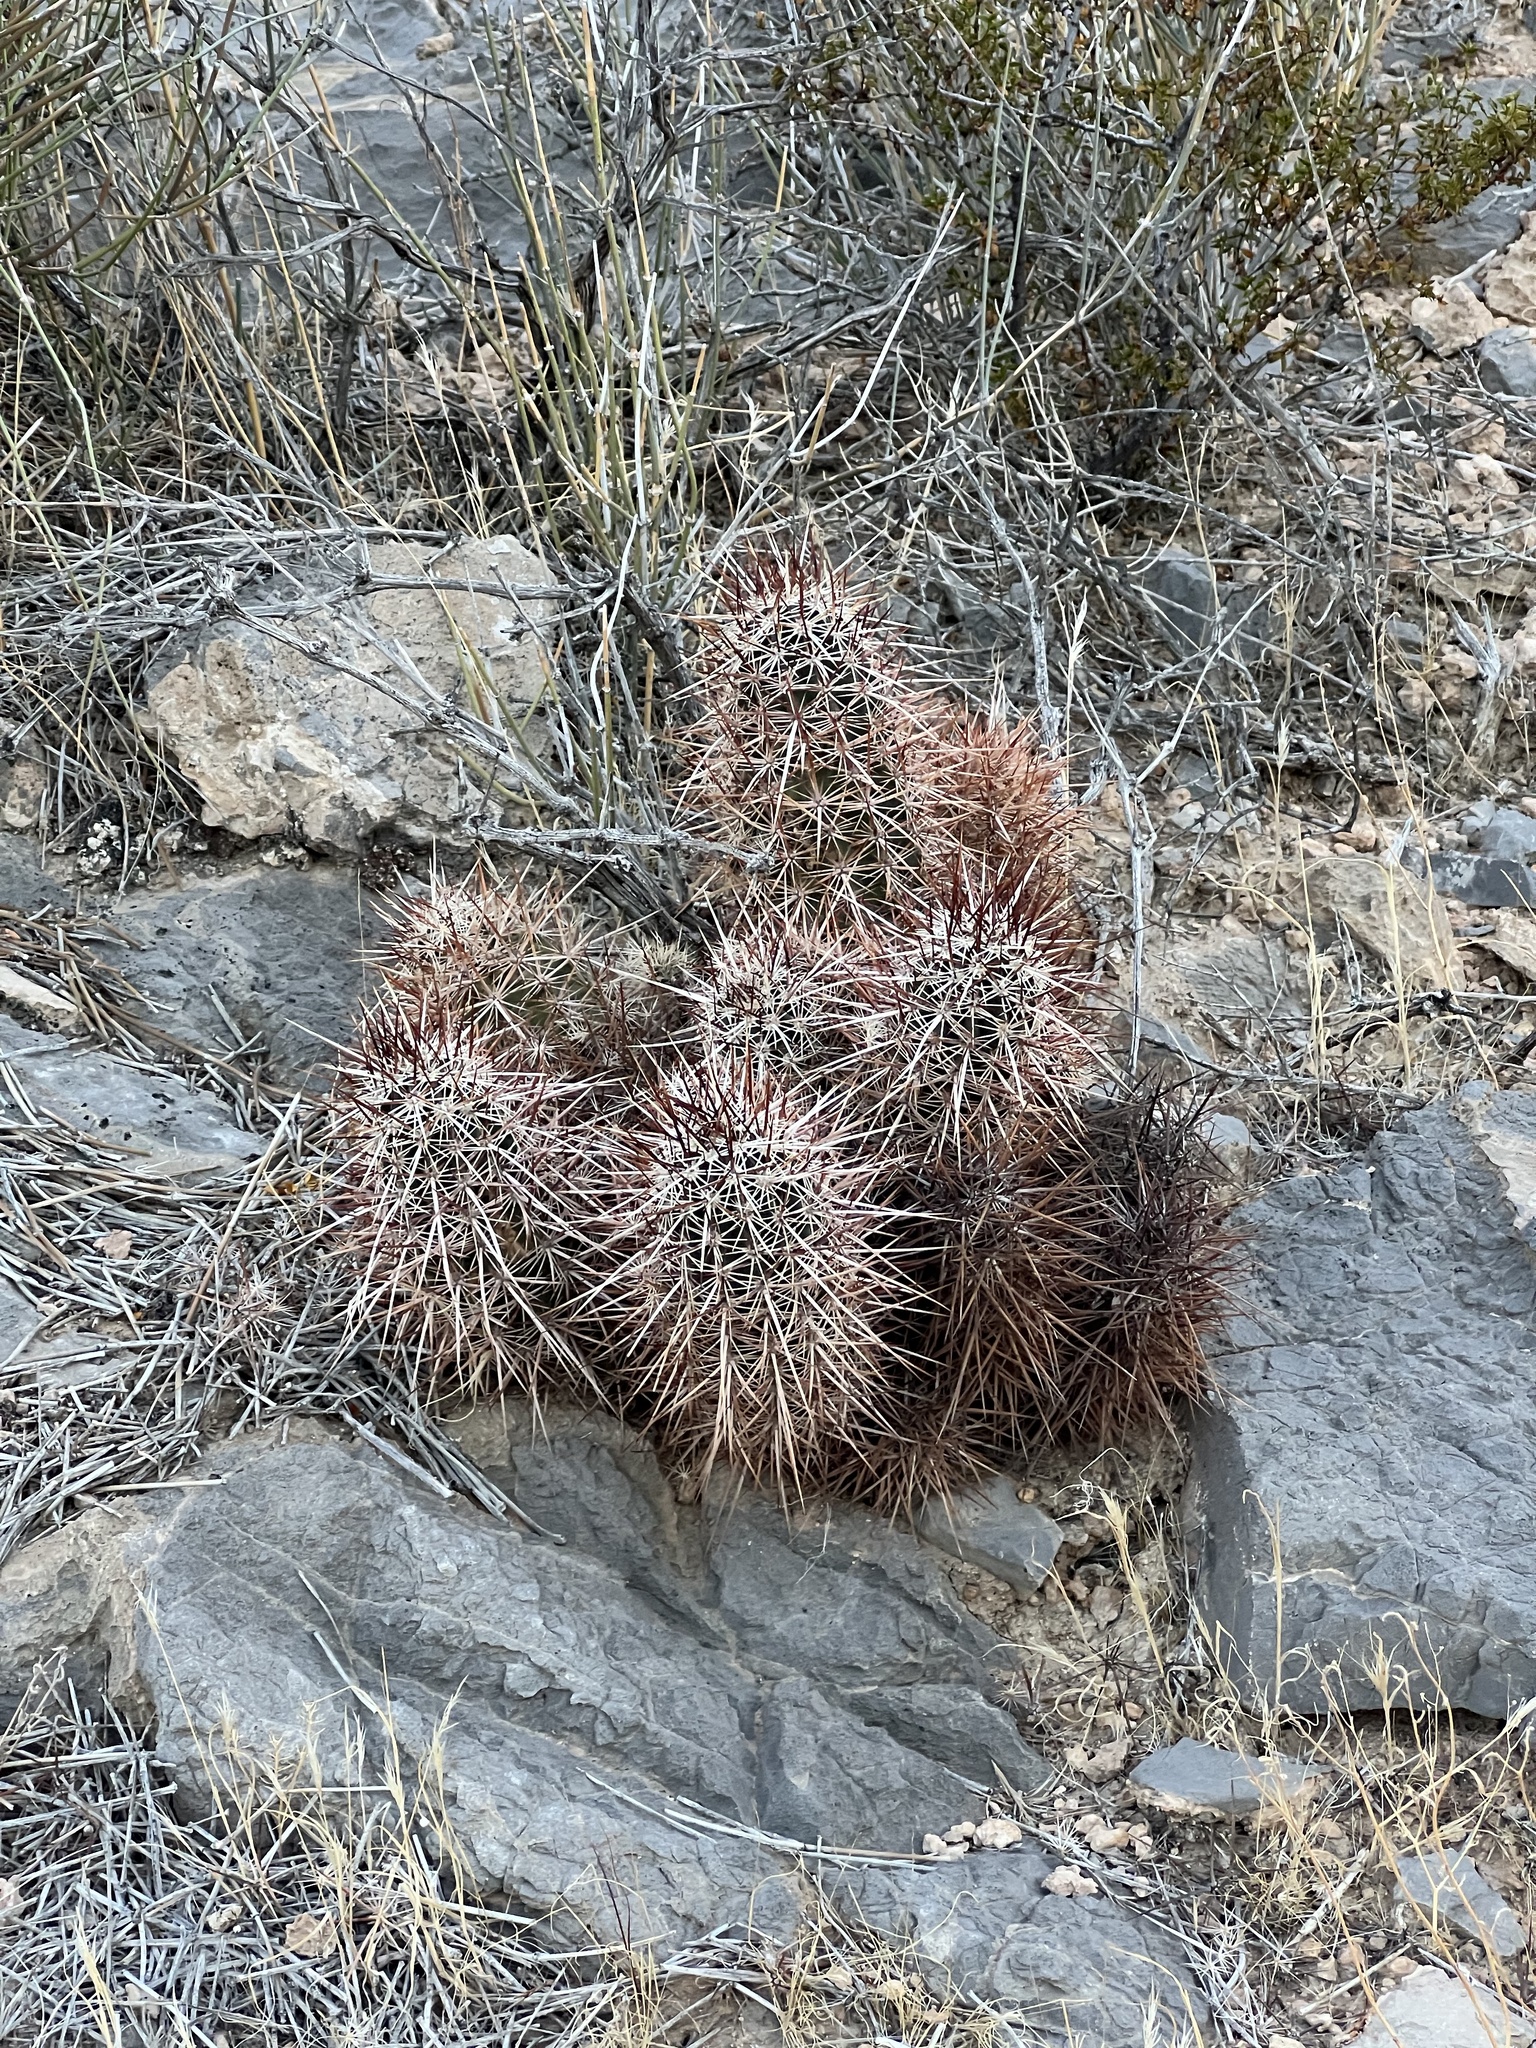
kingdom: Plantae
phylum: Tracheophyta
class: Magnoliopsida
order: Caryophyllales
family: Cactaceae
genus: Echinocereus
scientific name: Echinocereus engelmannii
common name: Engelmann's hedgehog cactus
